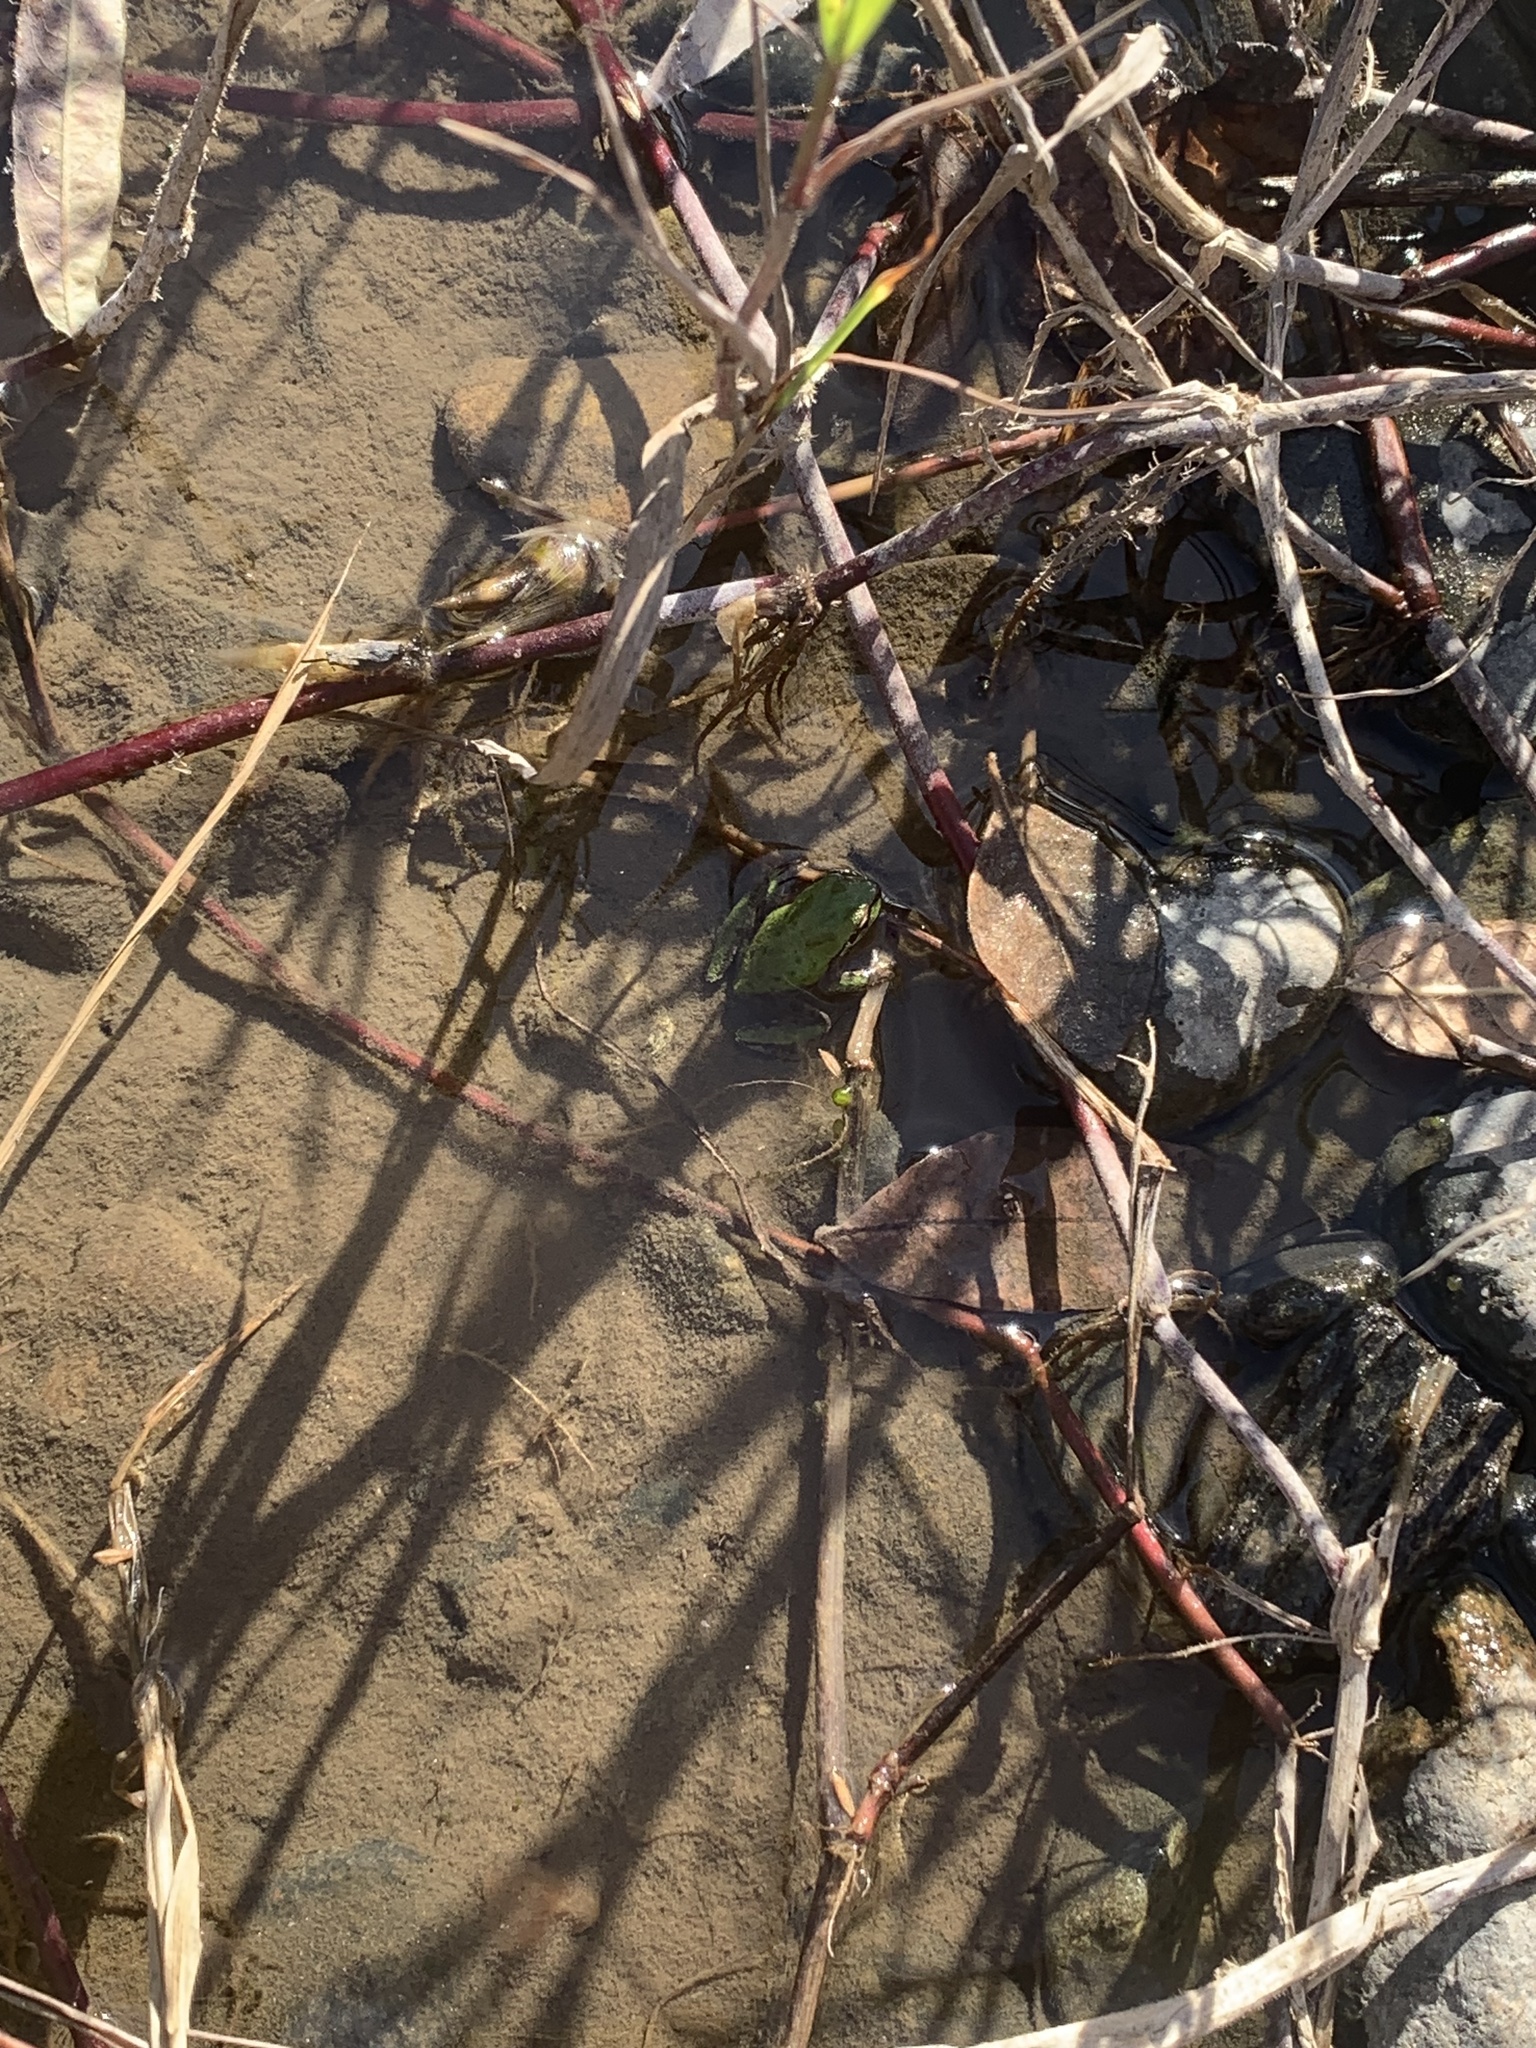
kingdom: Animalia
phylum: Chordata
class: Amphibia
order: Anura
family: Hylidae
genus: Pseudacris
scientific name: Pseudacris regilla
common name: Pacific chorus frog
